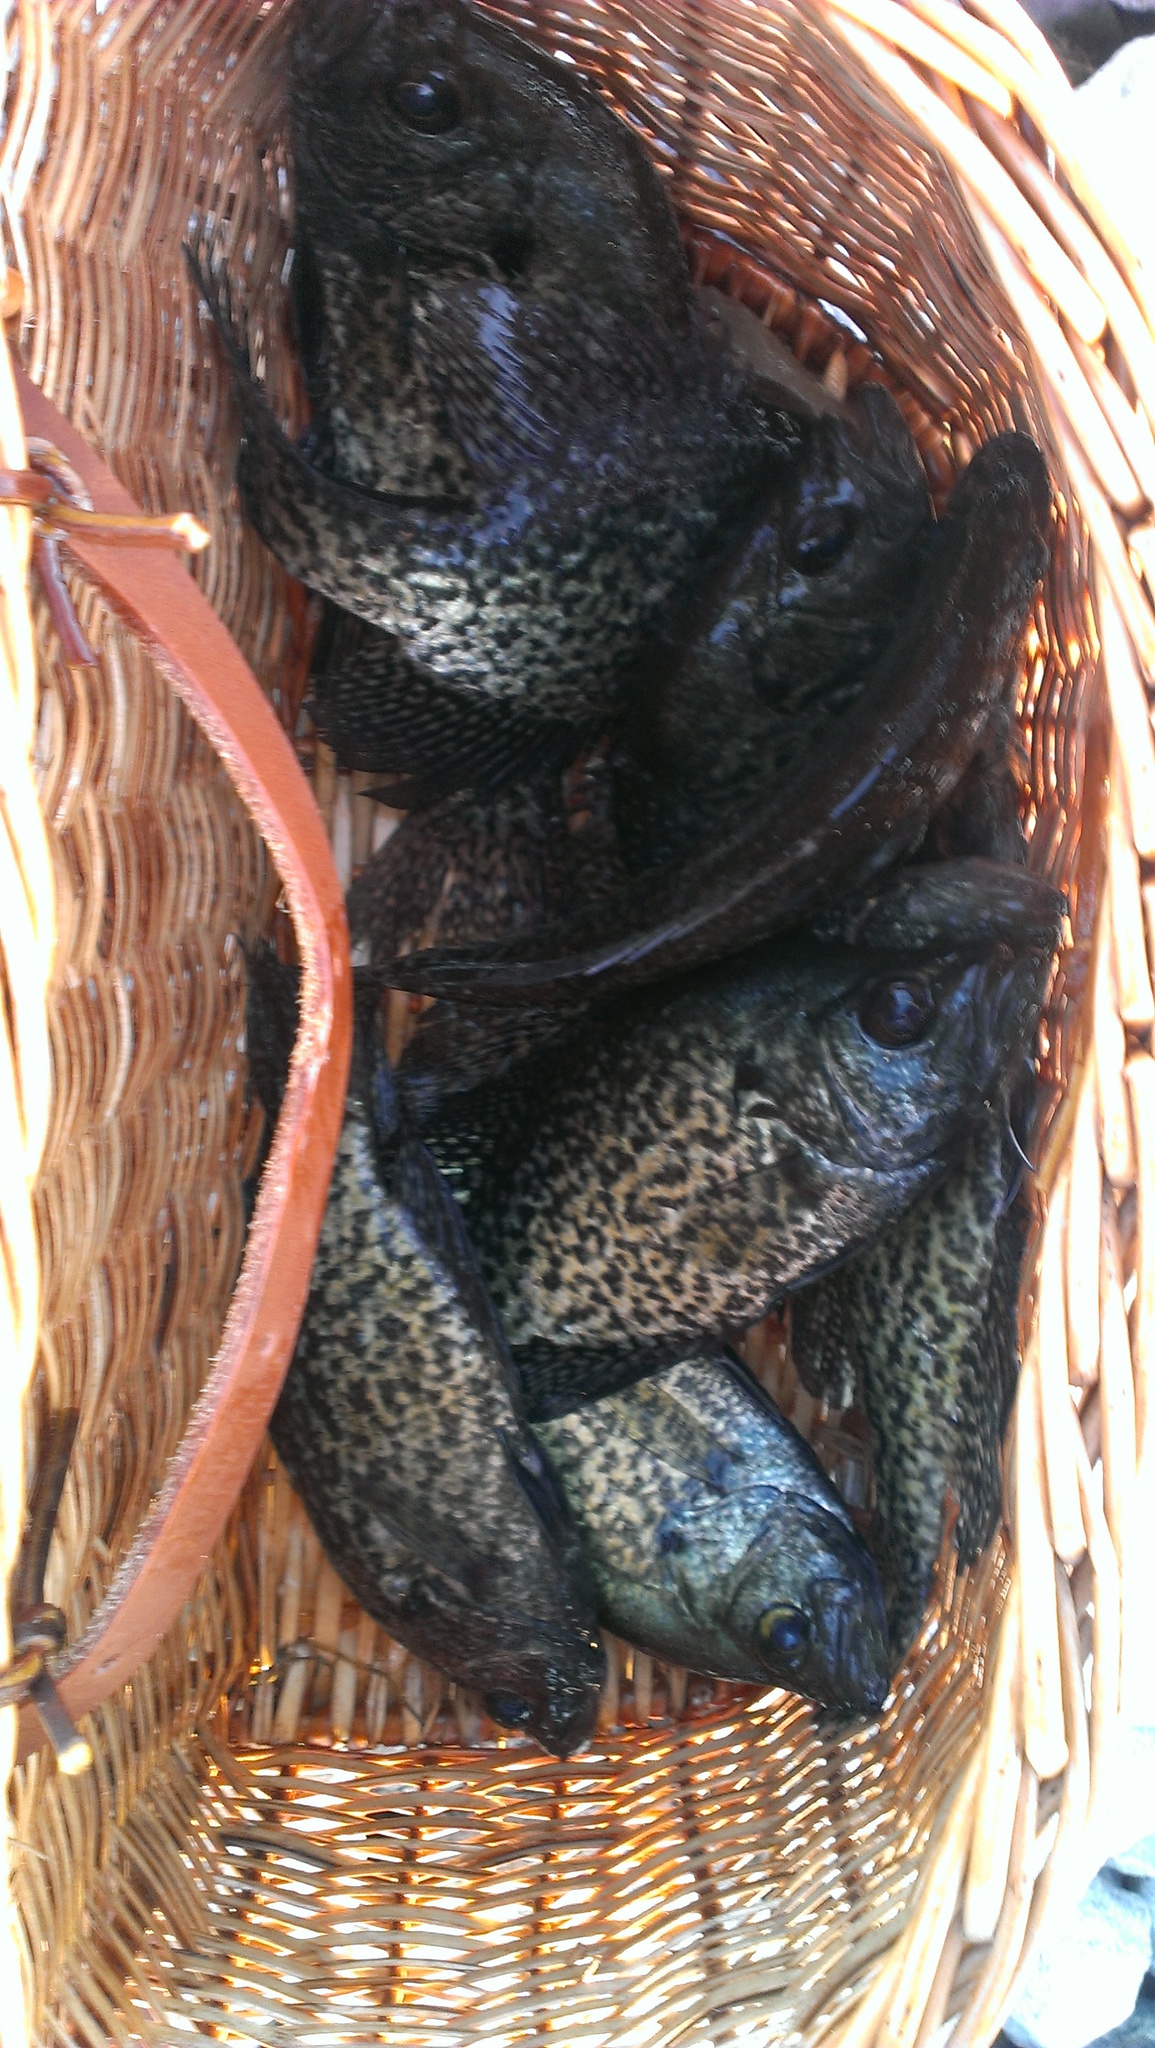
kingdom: Animalia
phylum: Chordata
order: Perciformes
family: Centrarchidae
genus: Pomoxis
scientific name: Pomoxis nigromaculatus
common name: Black crappie
